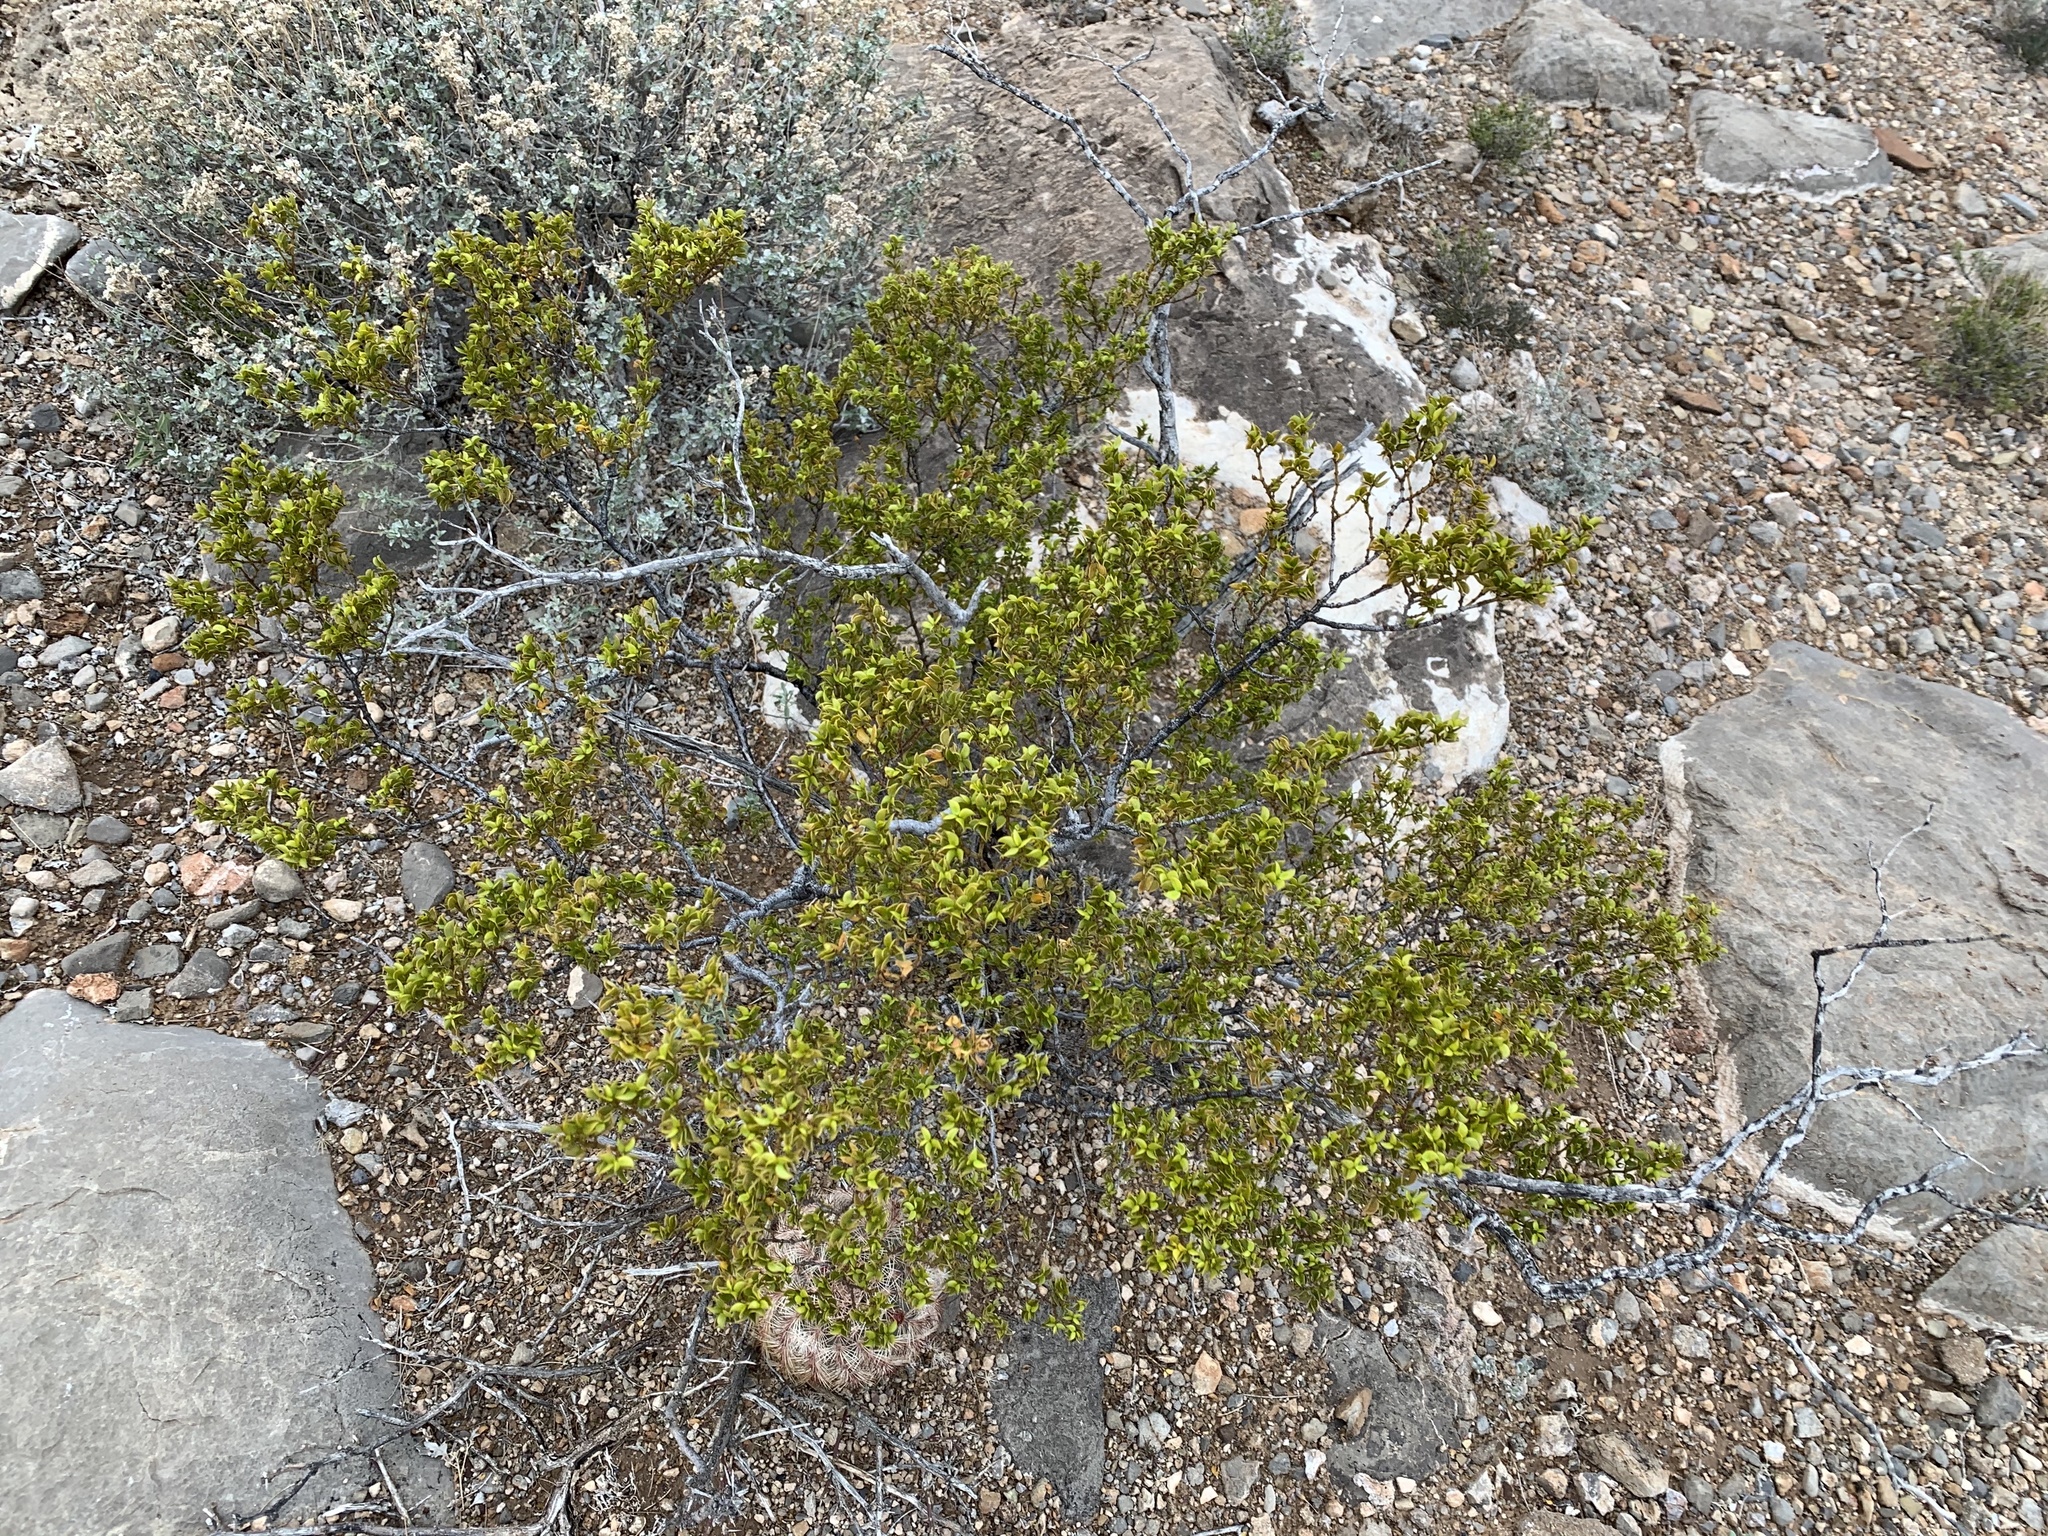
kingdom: Plantae
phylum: Tracheophyta
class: Magnoliopsida
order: Zygophyllales
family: Zygophyllaceae
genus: Larrea
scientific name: Larrea tridentata
